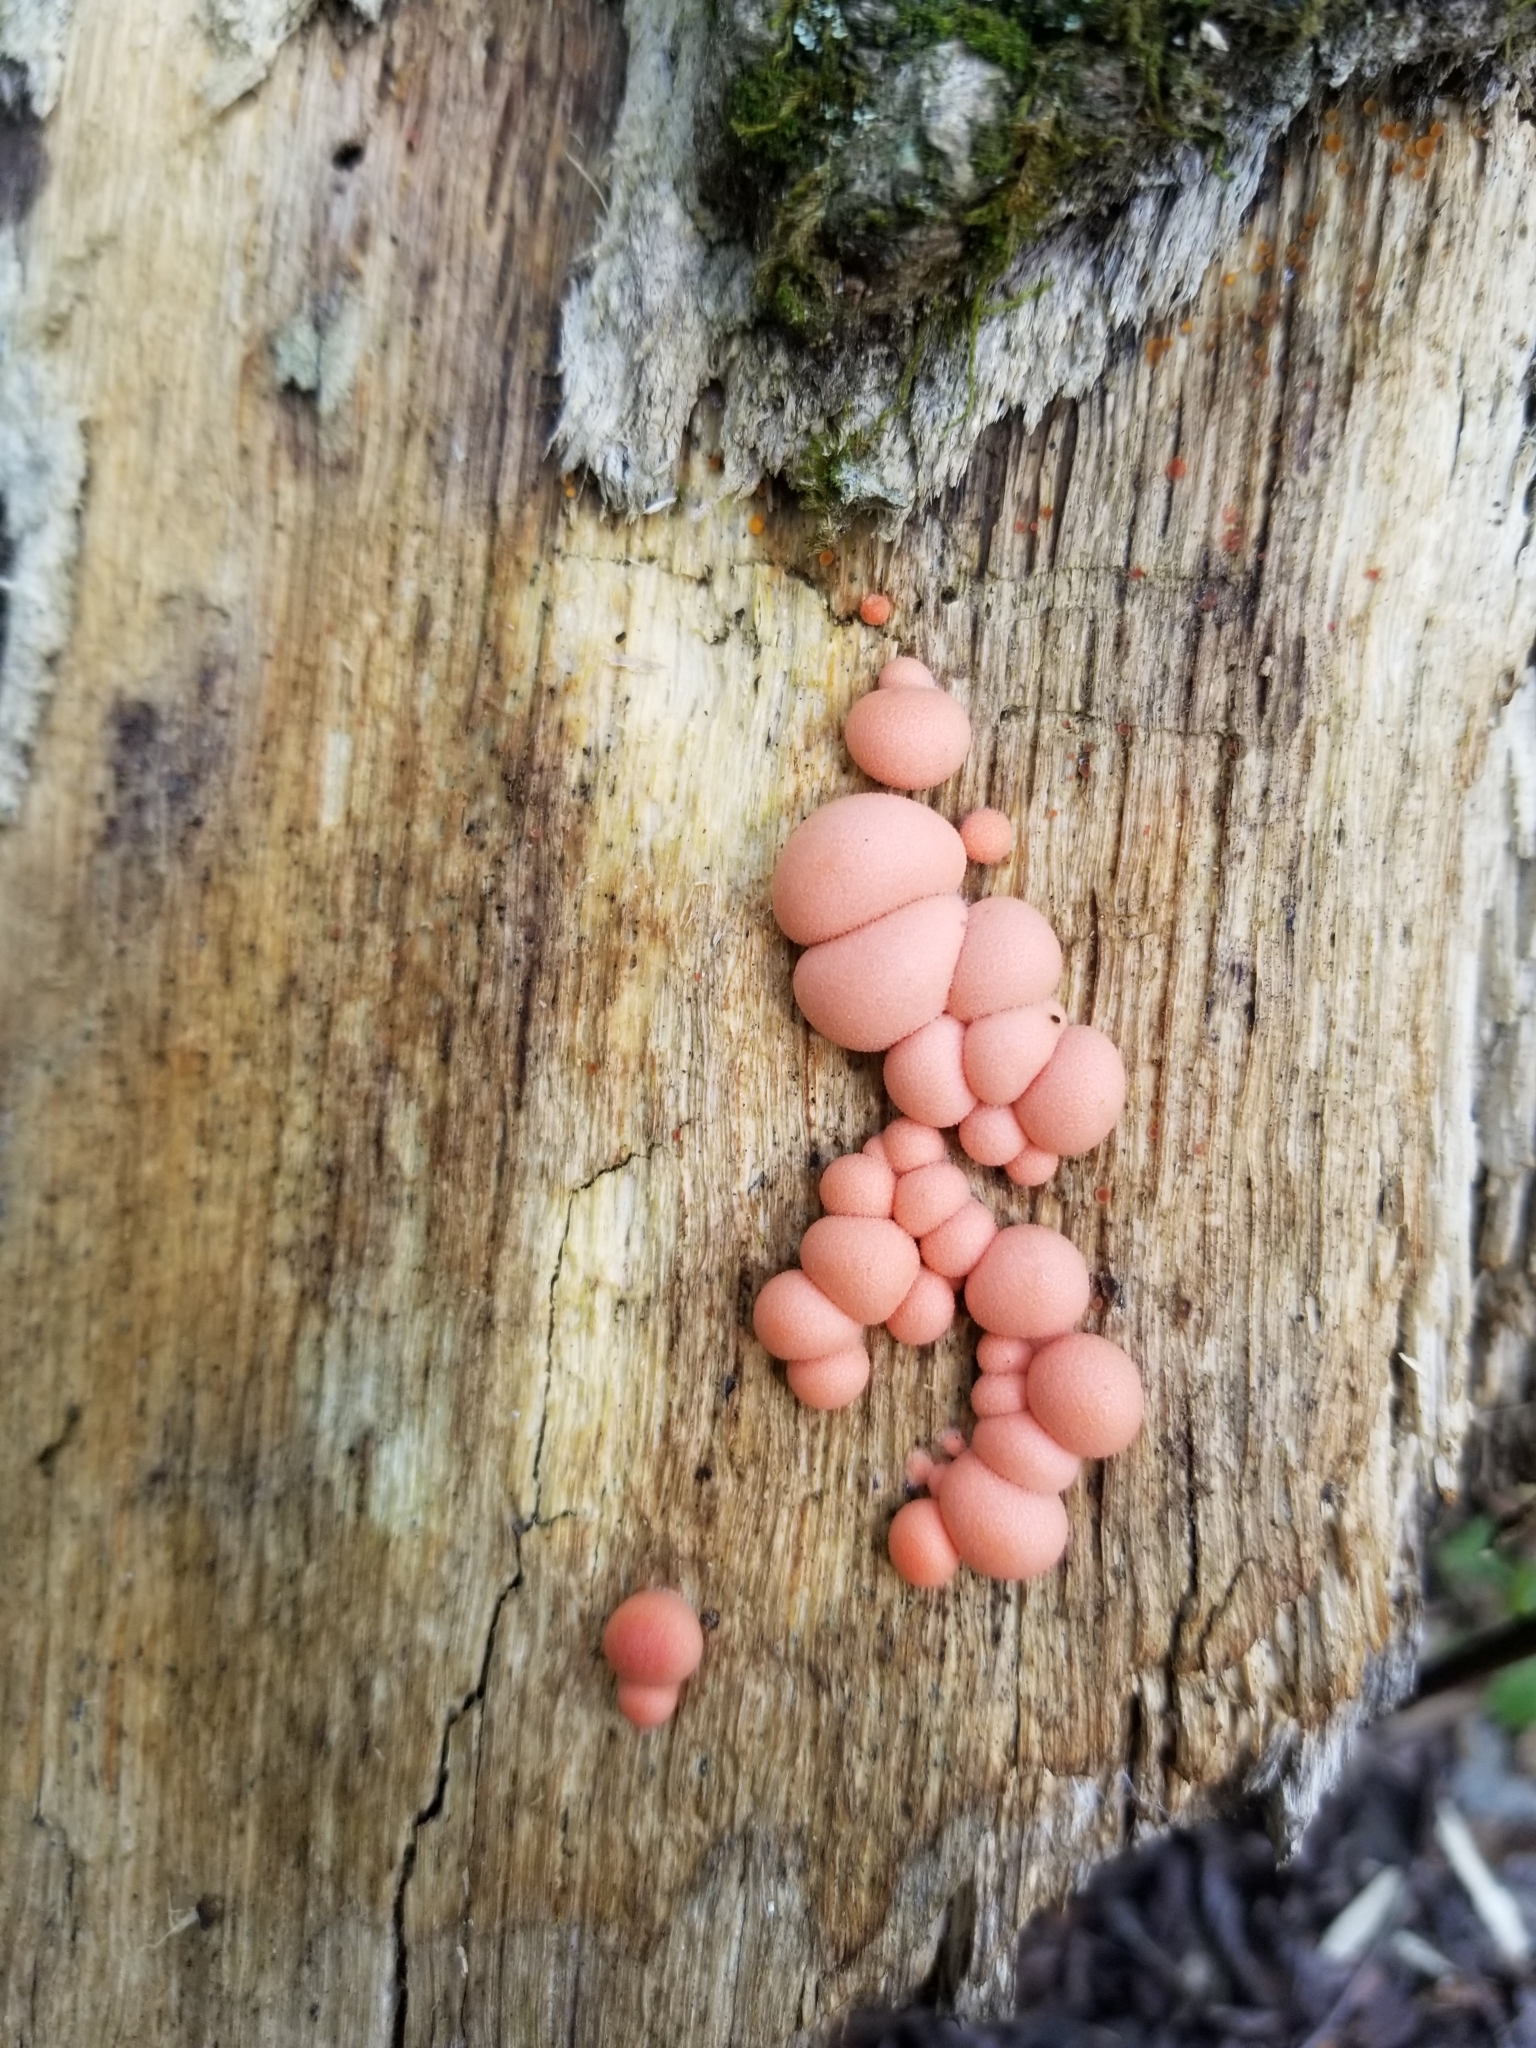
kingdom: Protozoa
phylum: Mycetozoa
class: Myxomycetes
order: Cribrariales
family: Tubiferaceae
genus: Lycogala
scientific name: Lycogala epidendrum
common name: Wolf's milk
